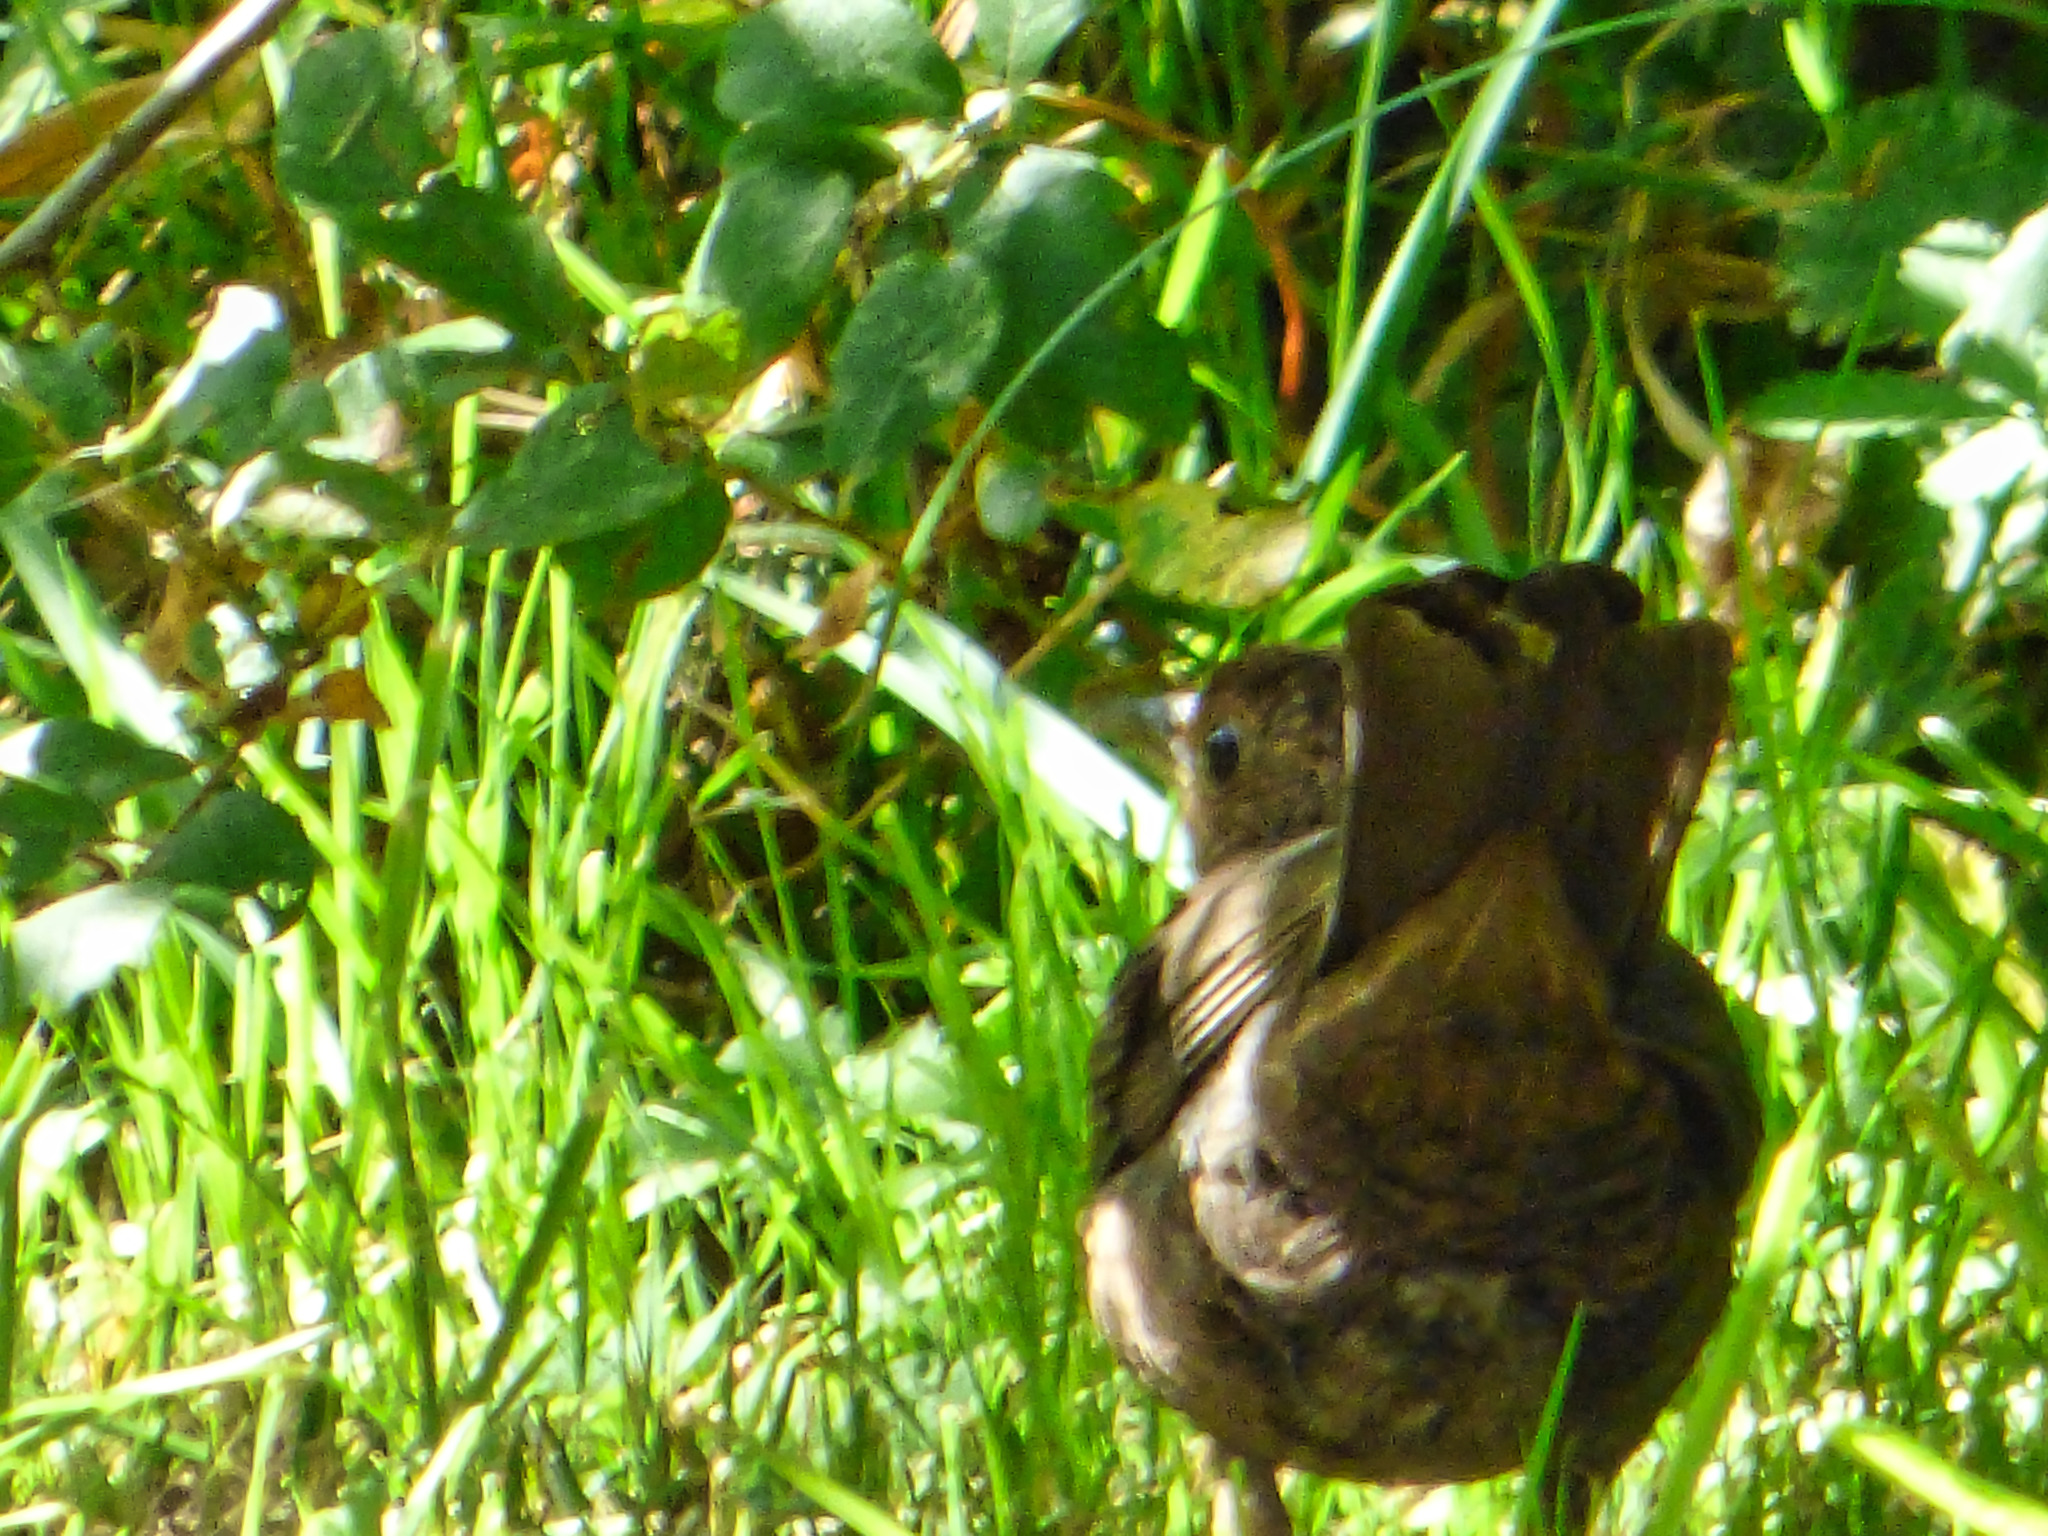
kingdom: Animalia
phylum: Chordata
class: Aves
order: Passeriformes
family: Turdidae
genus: Turdus
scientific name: Turdus merula
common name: Common blackbird
